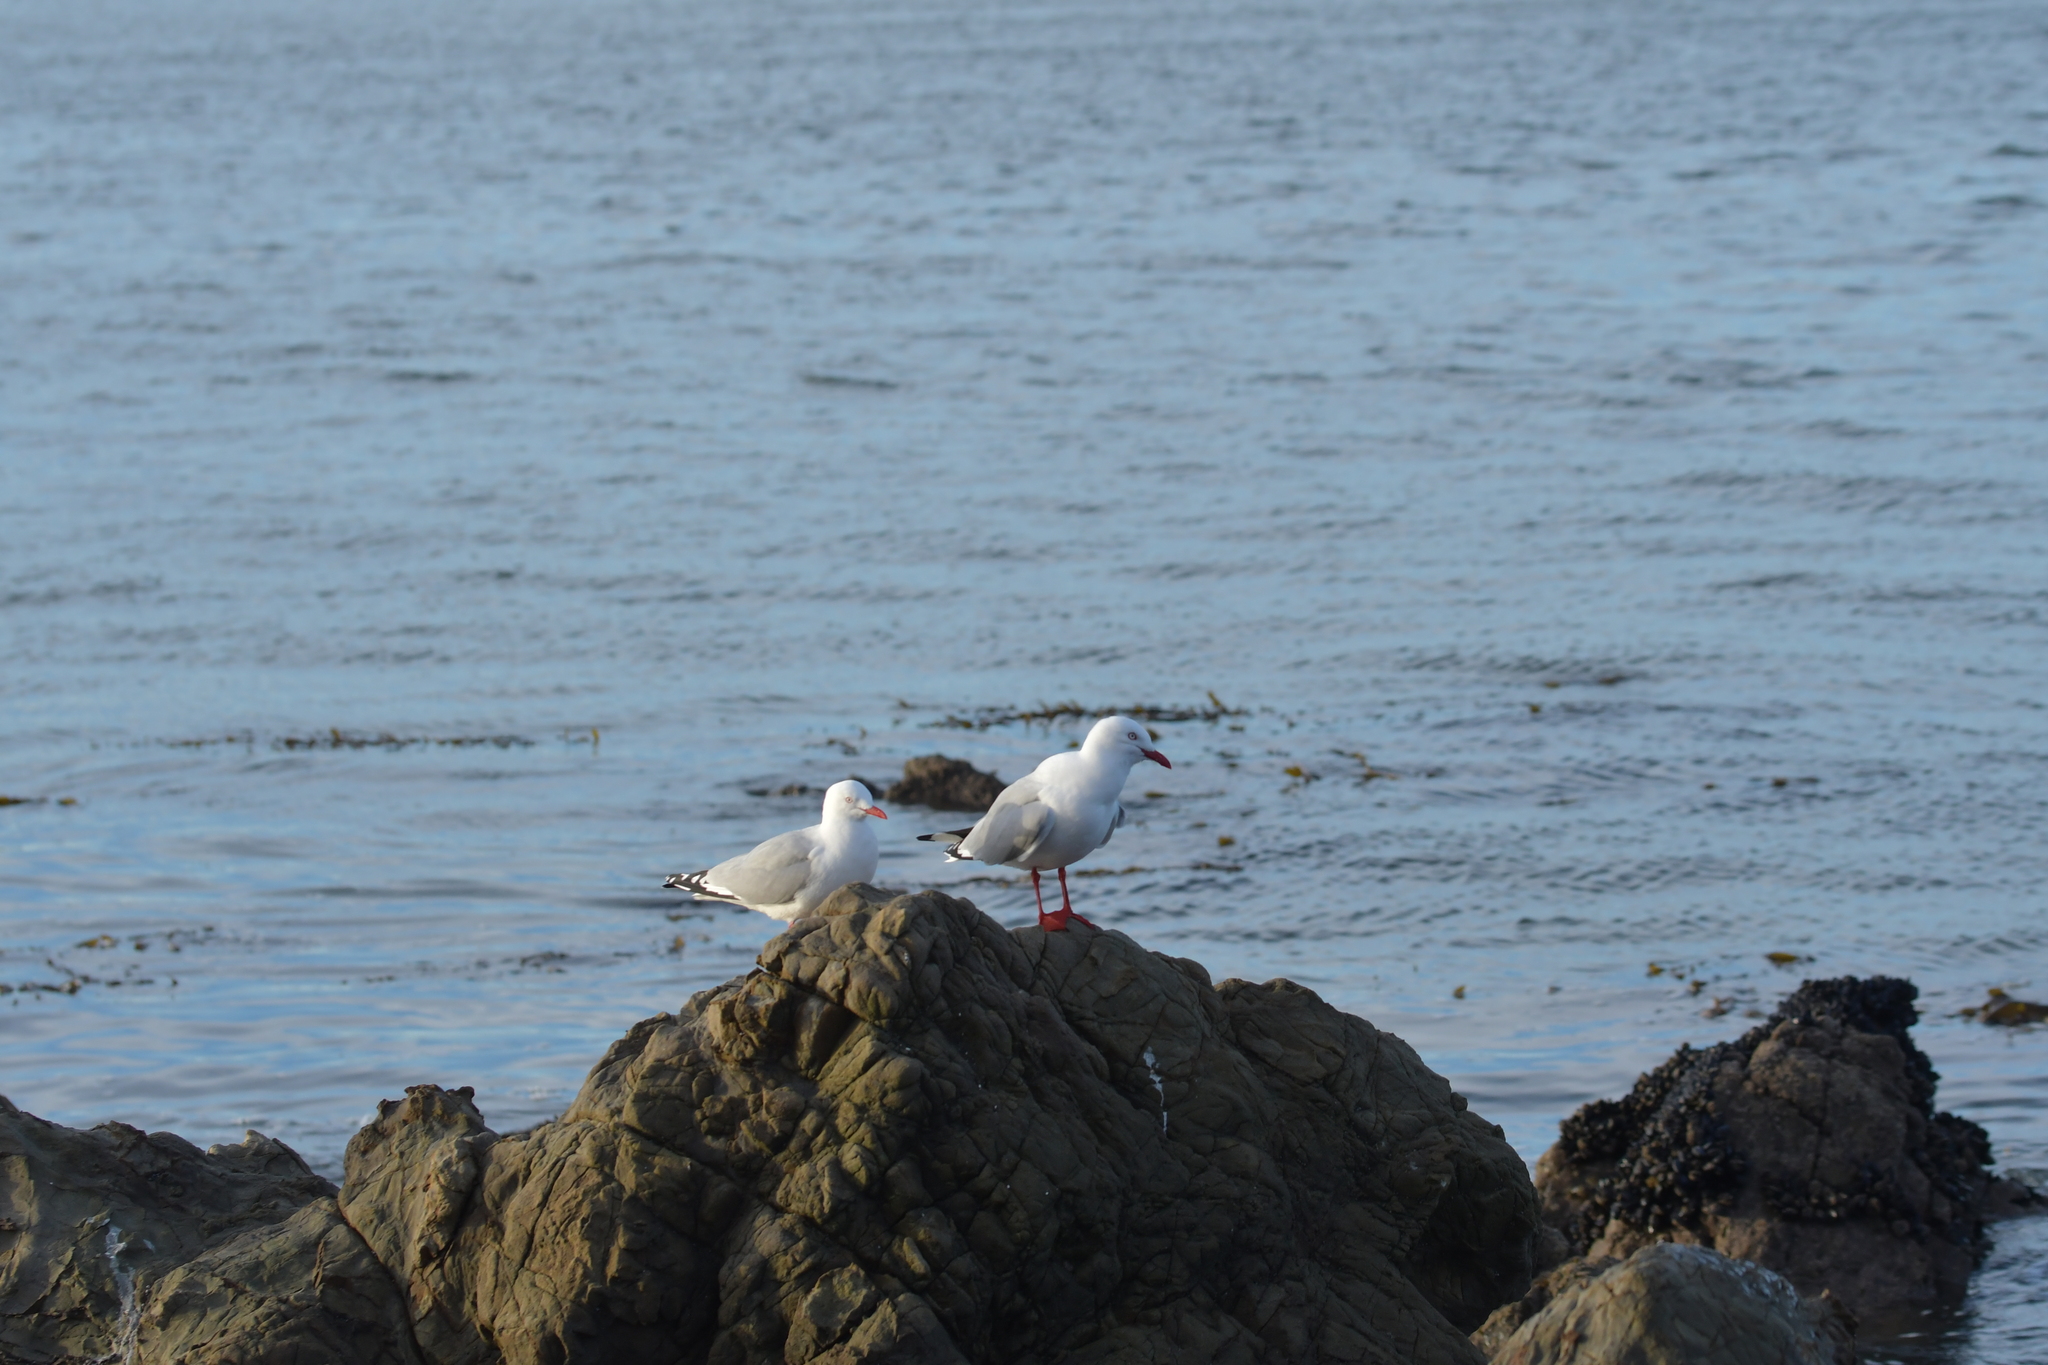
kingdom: Animalia
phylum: Chordata
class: Aves
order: Charadriiformes
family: Laridae
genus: Chroicocephalus
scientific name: Chroicocephalus novaehollandiae
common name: Silver gull
